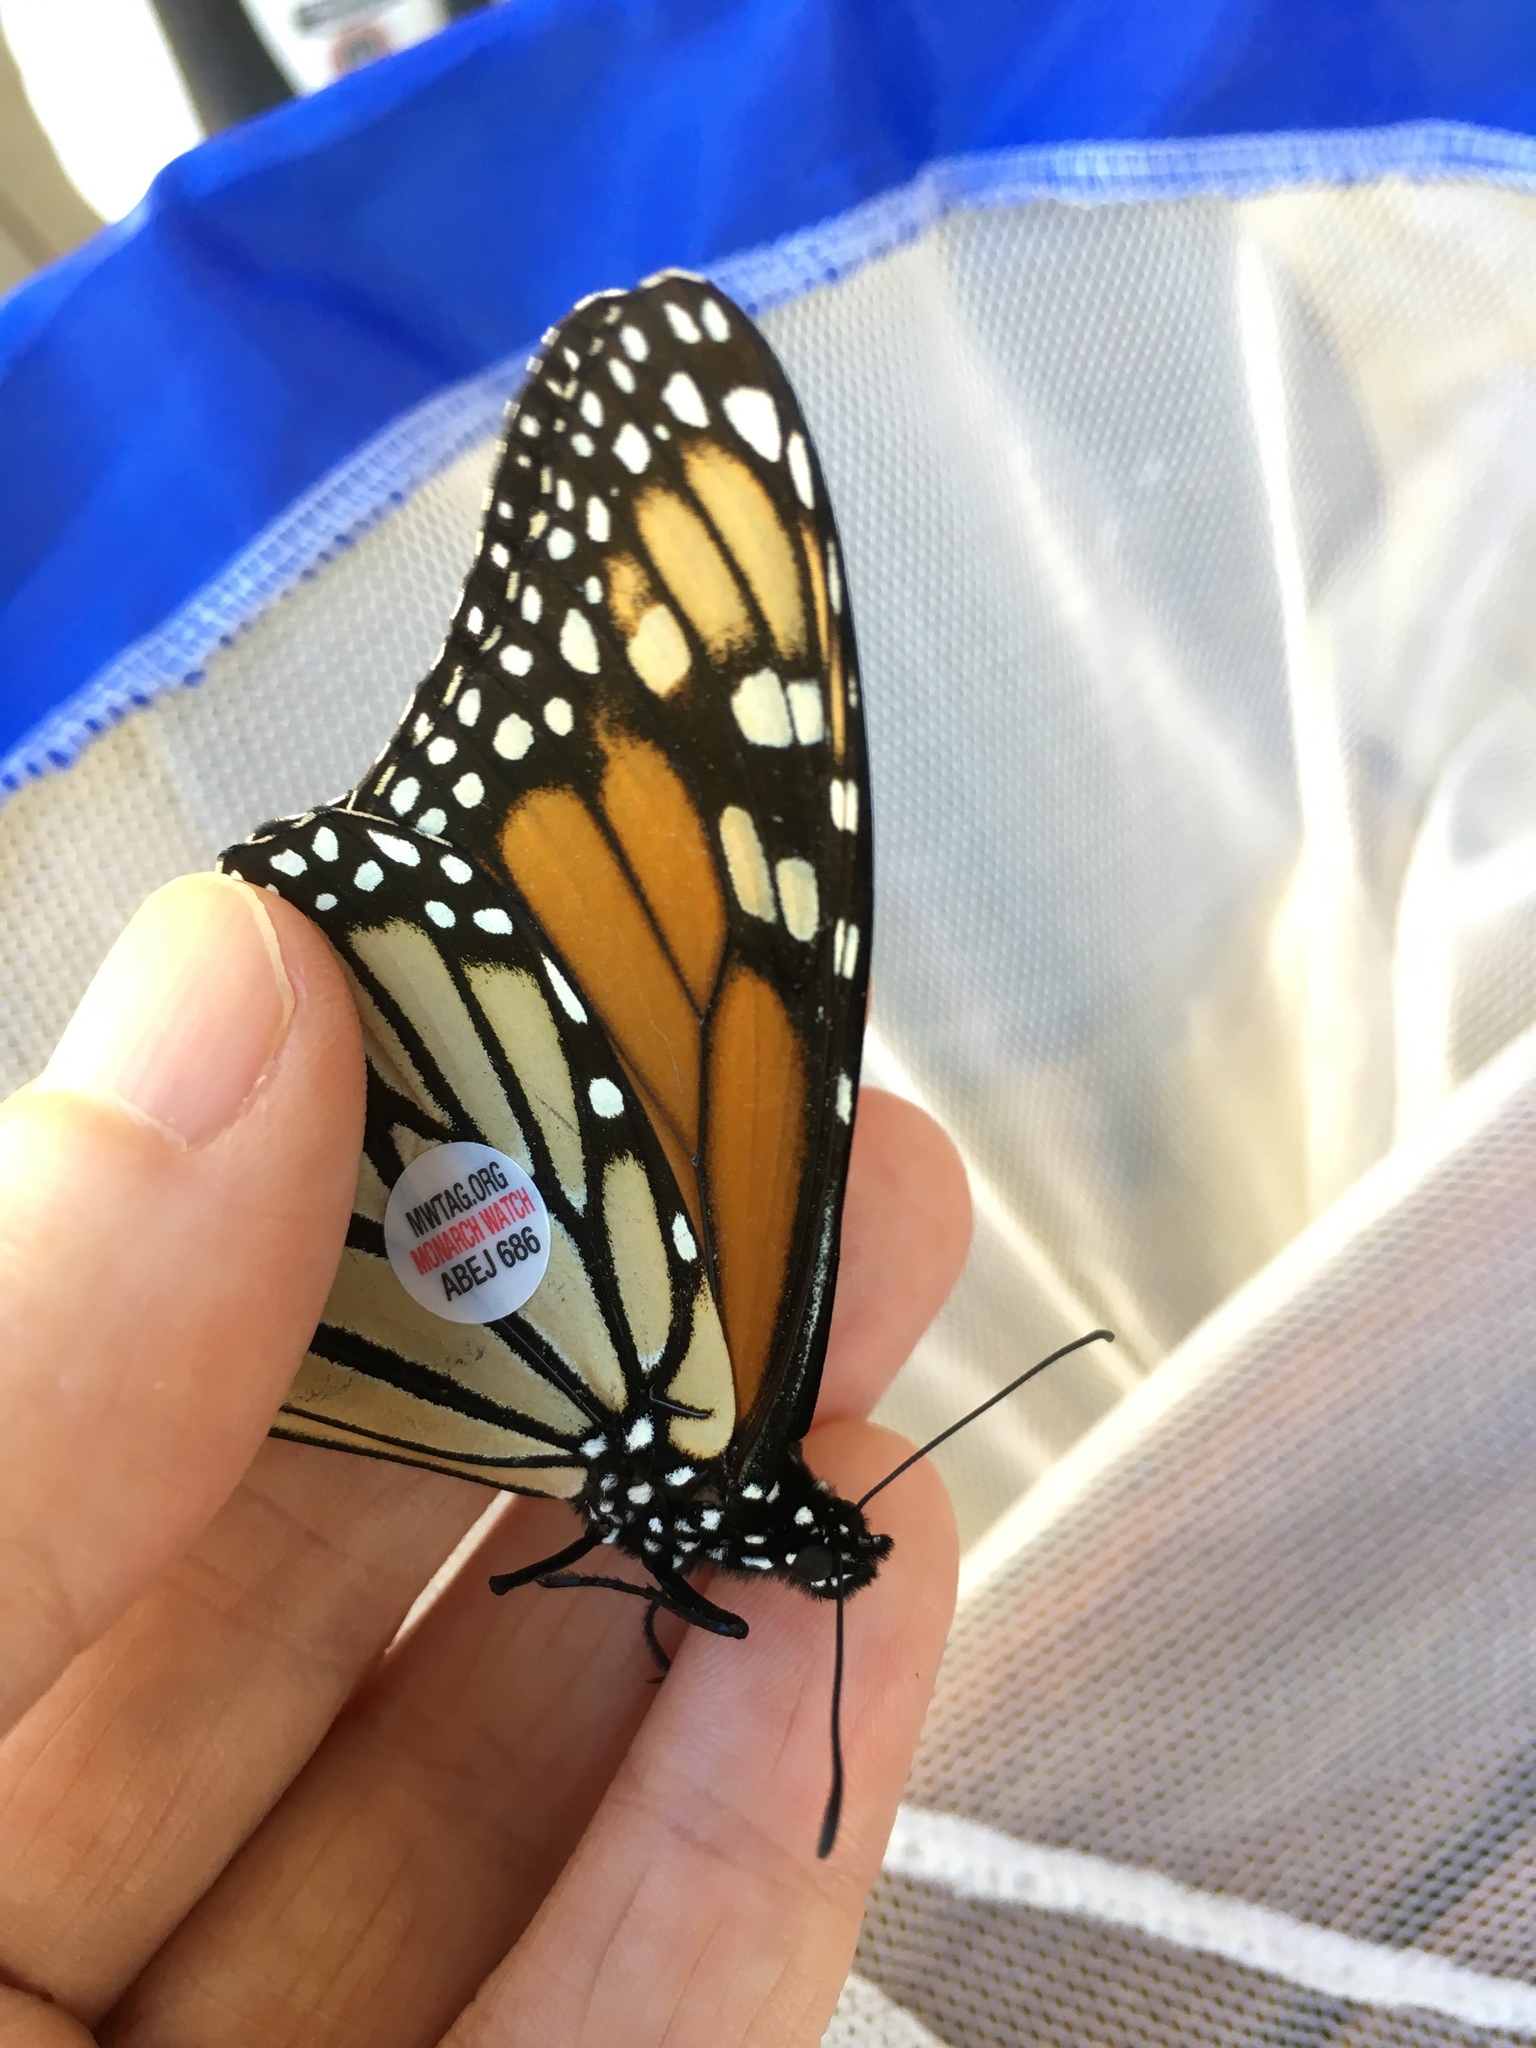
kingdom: Animalia
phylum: Arthropoda
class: Insecta
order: Lepidoptera
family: Nymphalidae
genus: Danaus
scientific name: Danaus plexippus
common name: Monarch
